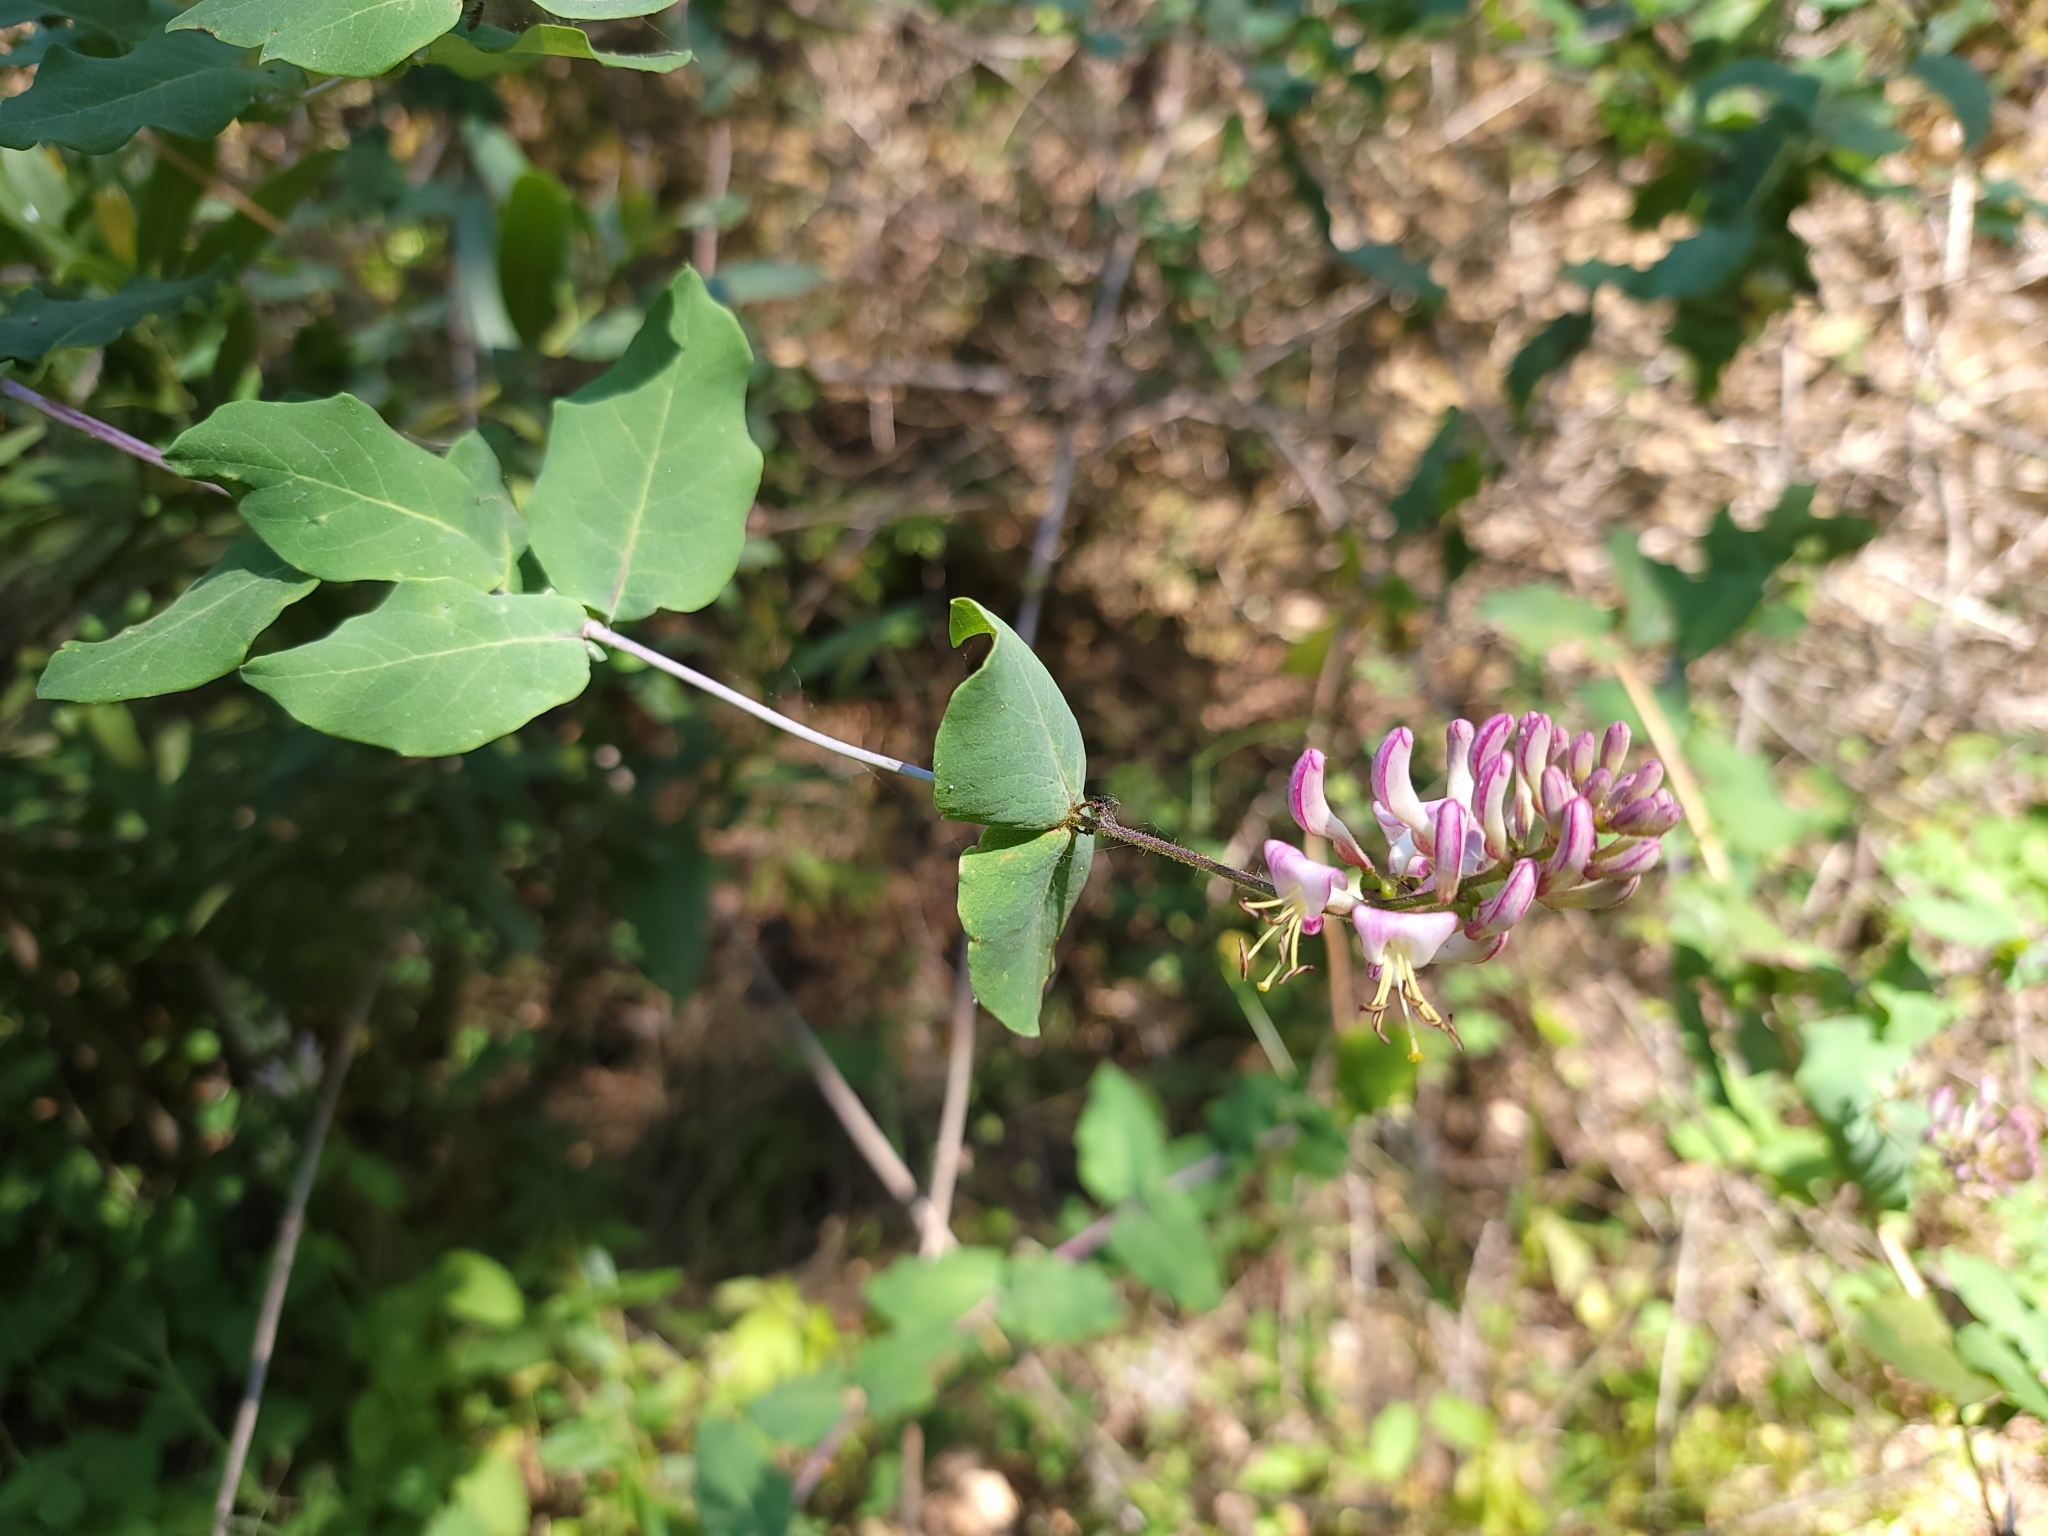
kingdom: Plantae
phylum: Tracheophyta
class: Magnoliopsida
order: Dipsacales
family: Caprifoliaceae
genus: Lonicera
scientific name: Lonicera hispidula
